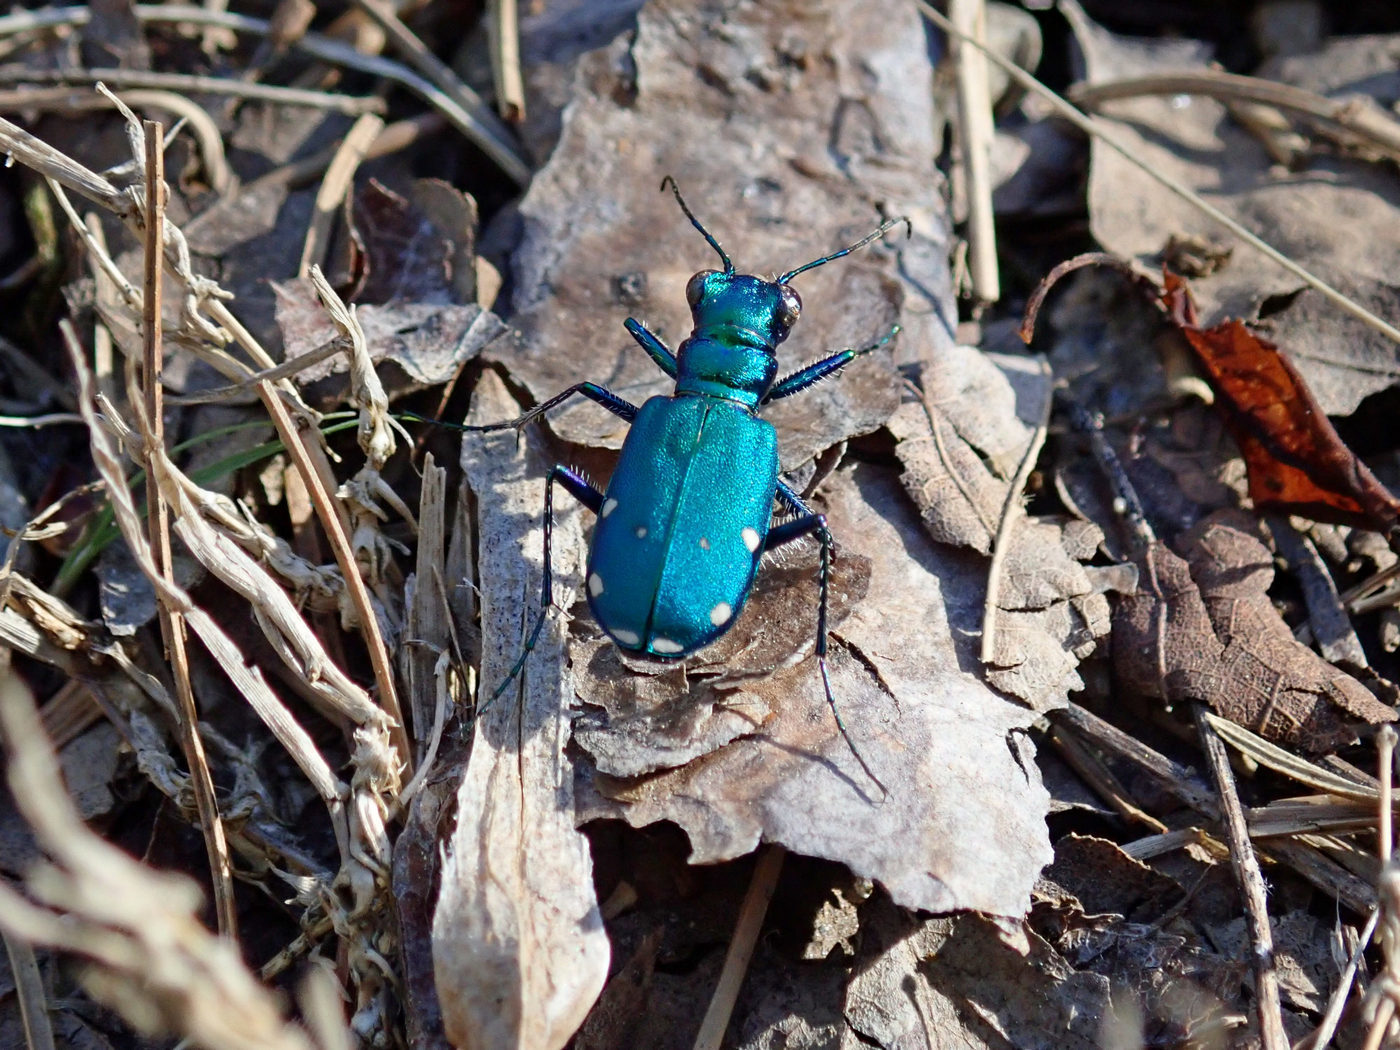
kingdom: Animalia
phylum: Arthropoda
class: Insecta
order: Coleoptera
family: Carabidae
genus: Cicindela
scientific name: Cicindela sexguttata
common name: Six-spotted tiger beetle
